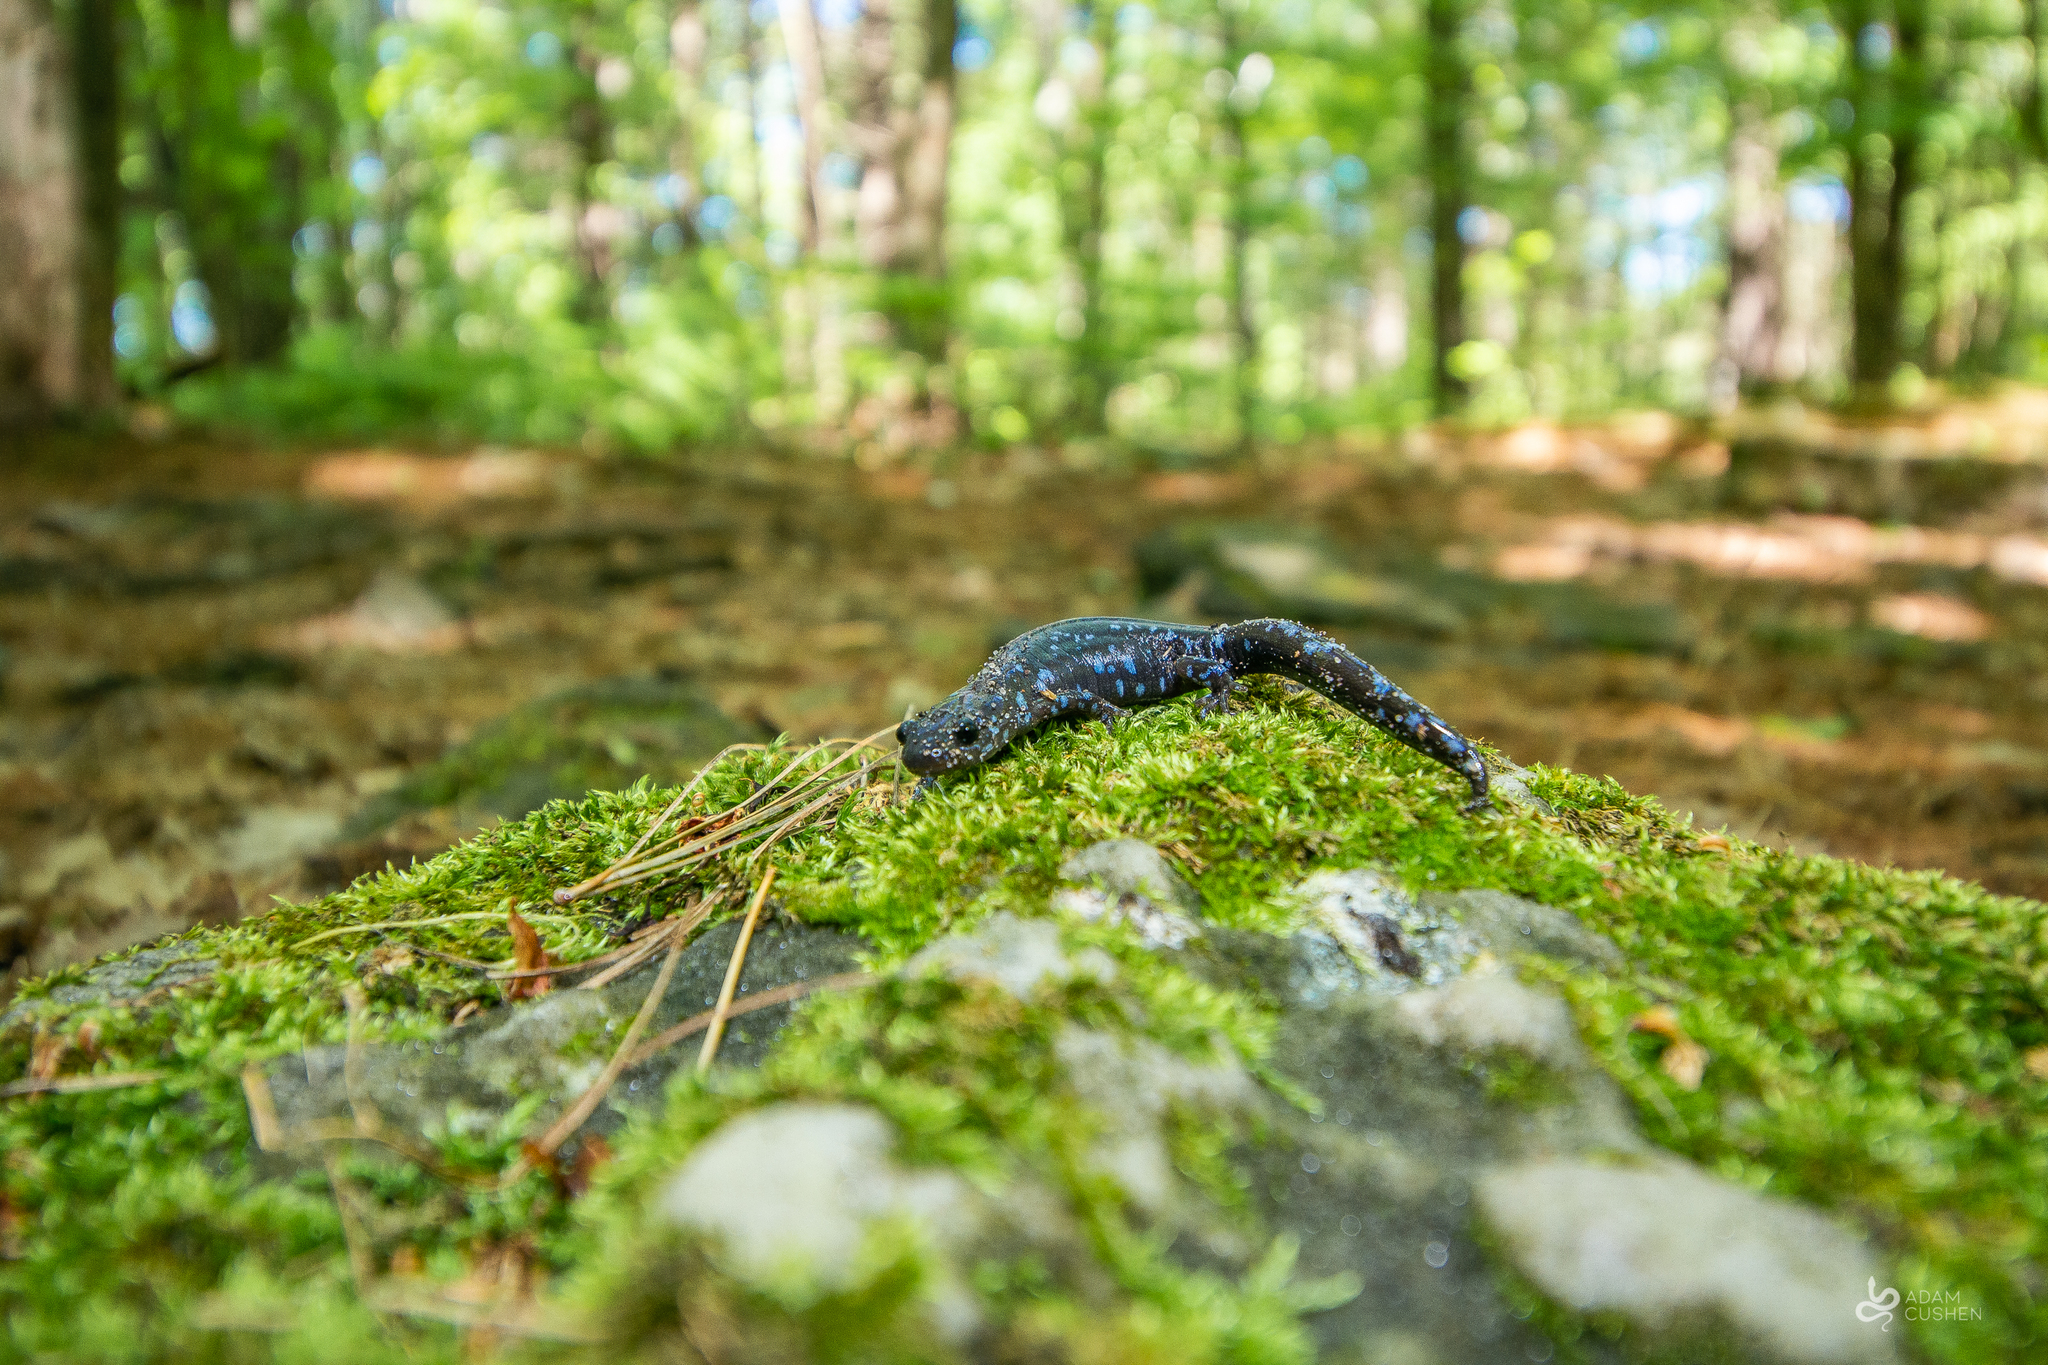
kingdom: Animalia
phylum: Chordata
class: Amphibia
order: Caudata
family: Ambystomatidae
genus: Ambystoma
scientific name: Ambystoma laterale
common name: Blue-spotted salamander
